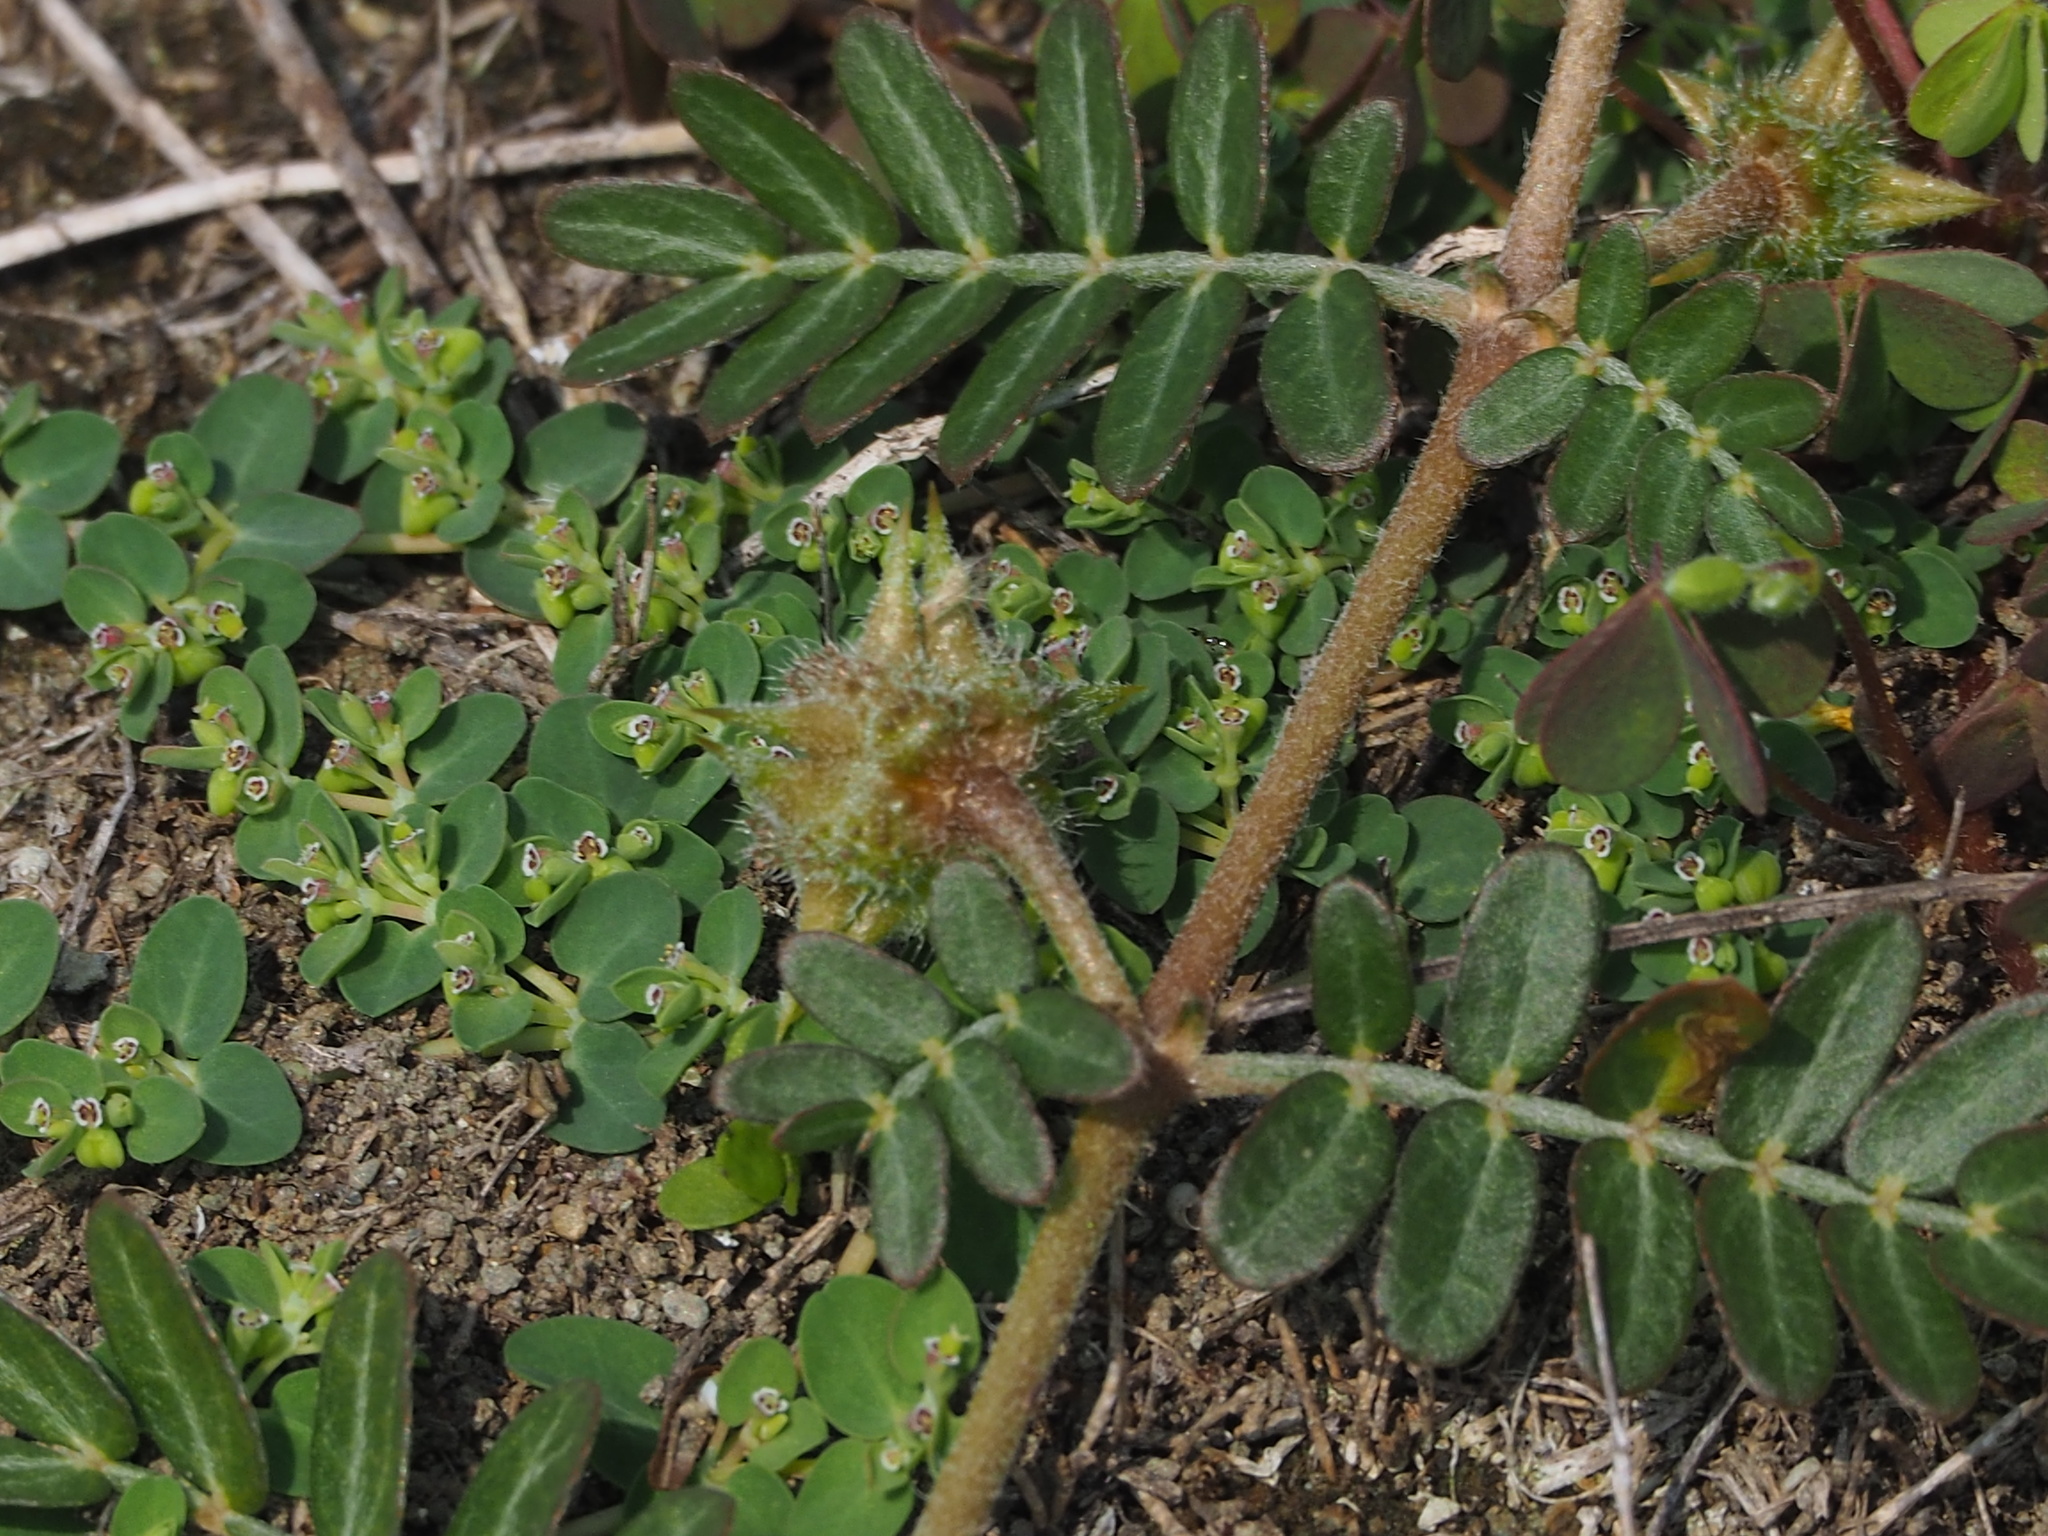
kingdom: Plantae
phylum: Tracheophyta
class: Magnoliopsida
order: Zygophyllales
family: Zygophyllaceae
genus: Tribulus
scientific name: Tribulus cistoides
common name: Jamaican feverplant
